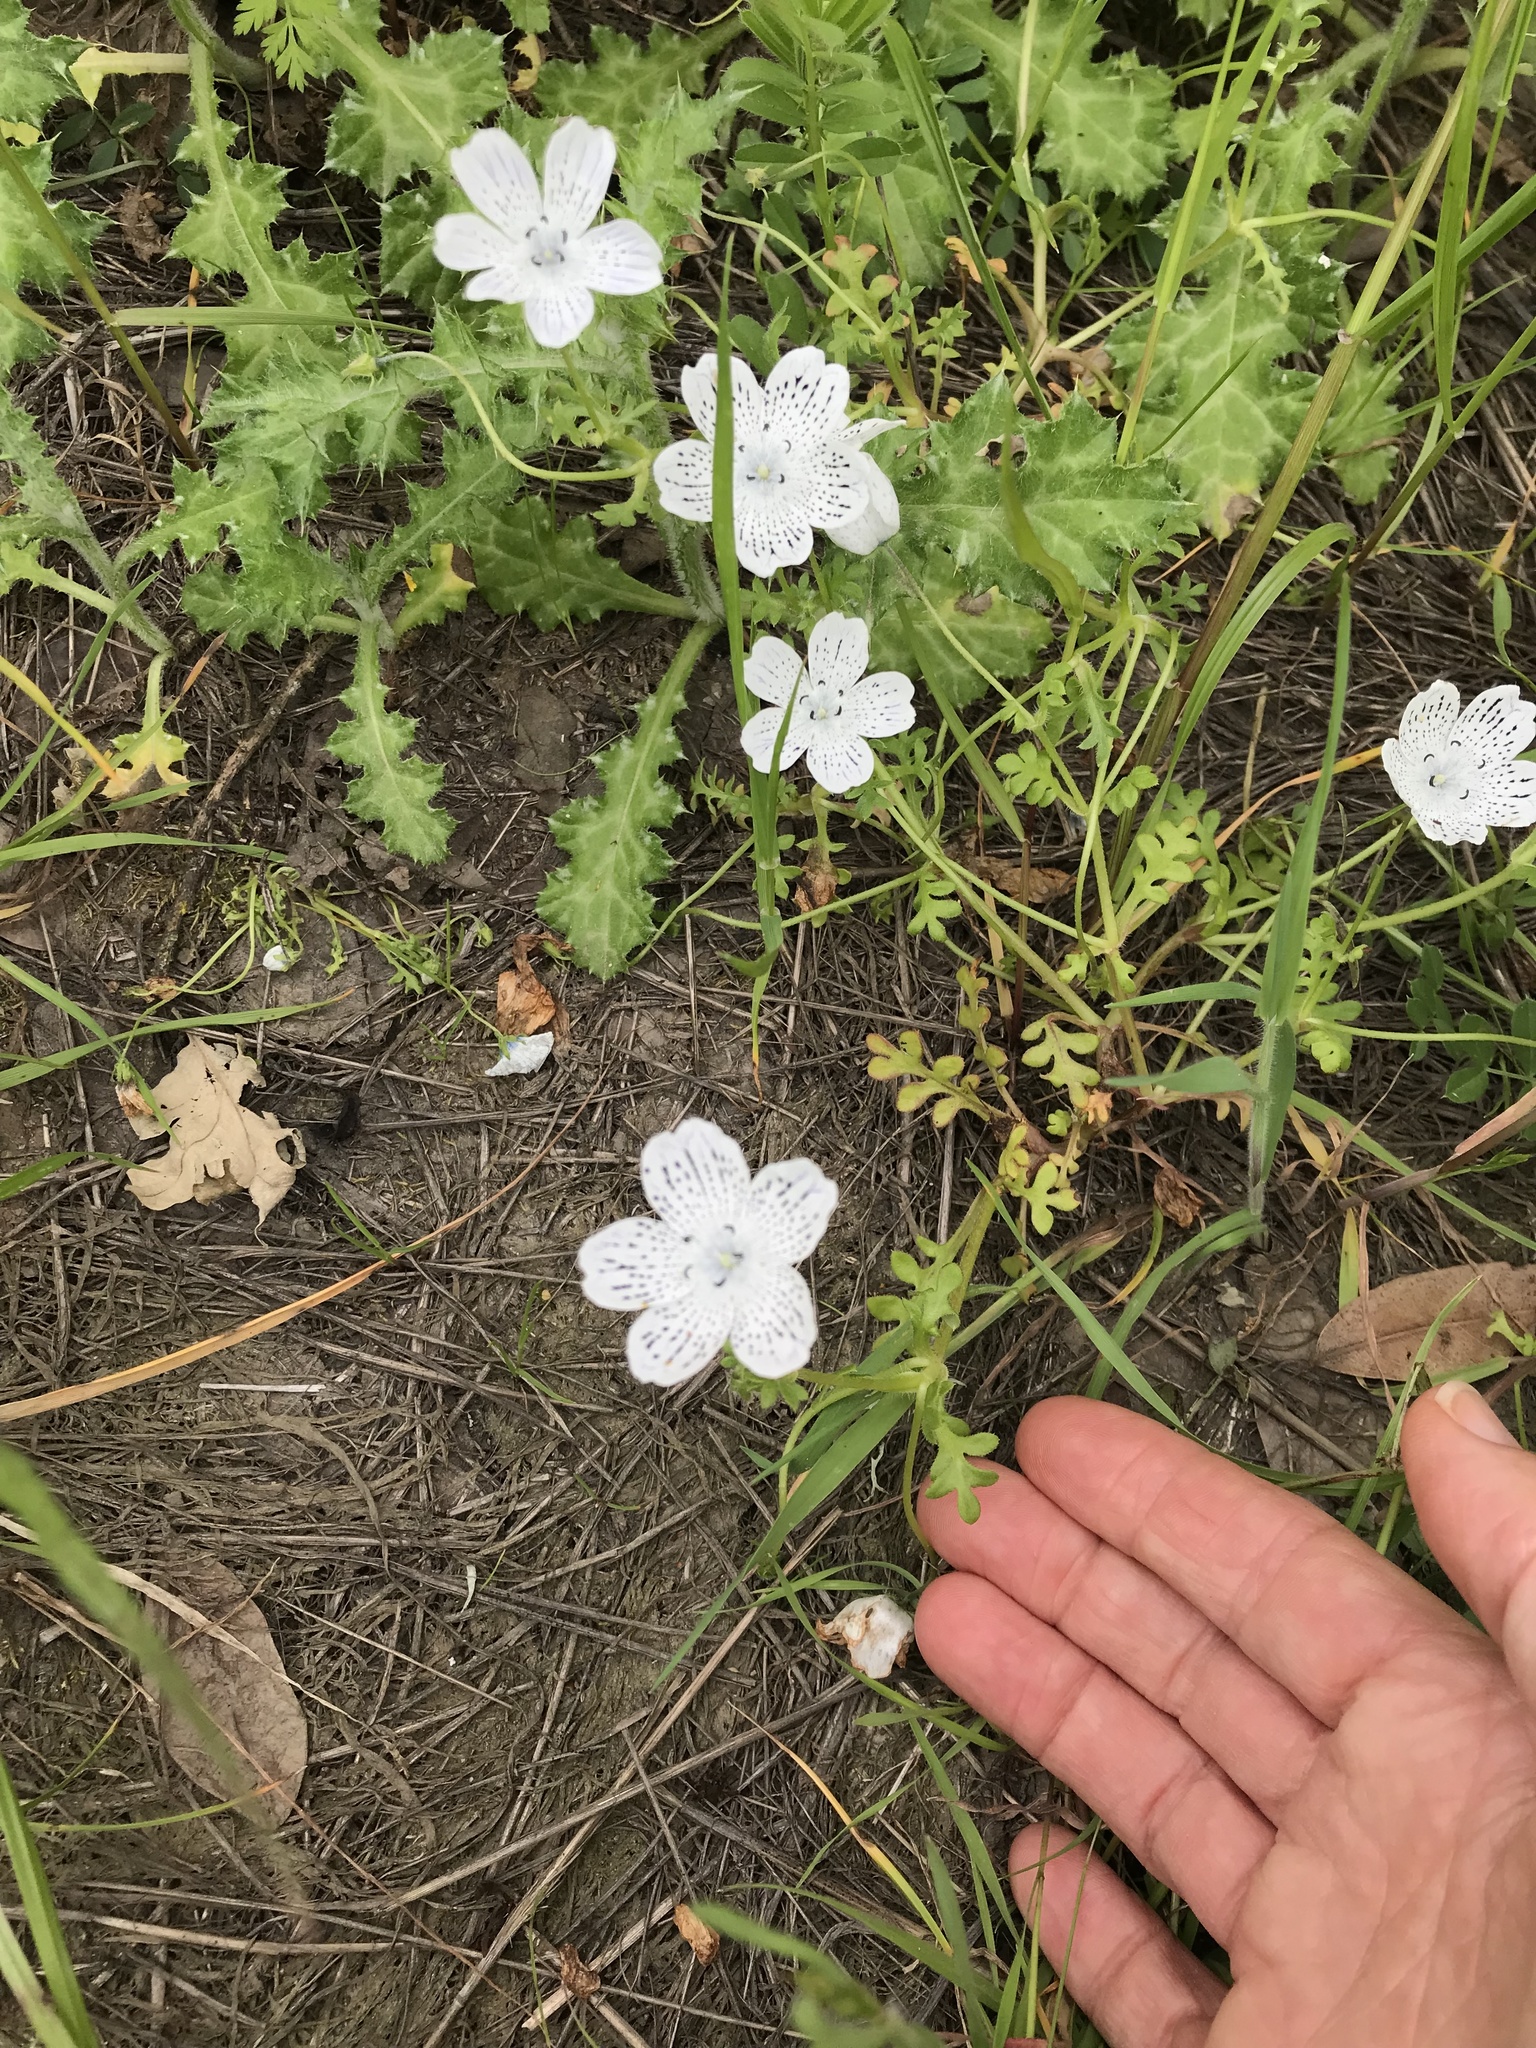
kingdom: Plantae
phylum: Tracheophyta
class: Magnoliopsida
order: Boraginales
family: Hydrophyllaceae
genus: Nemophila
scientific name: Nemophila menziesii
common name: Baby's-blue-eyes
